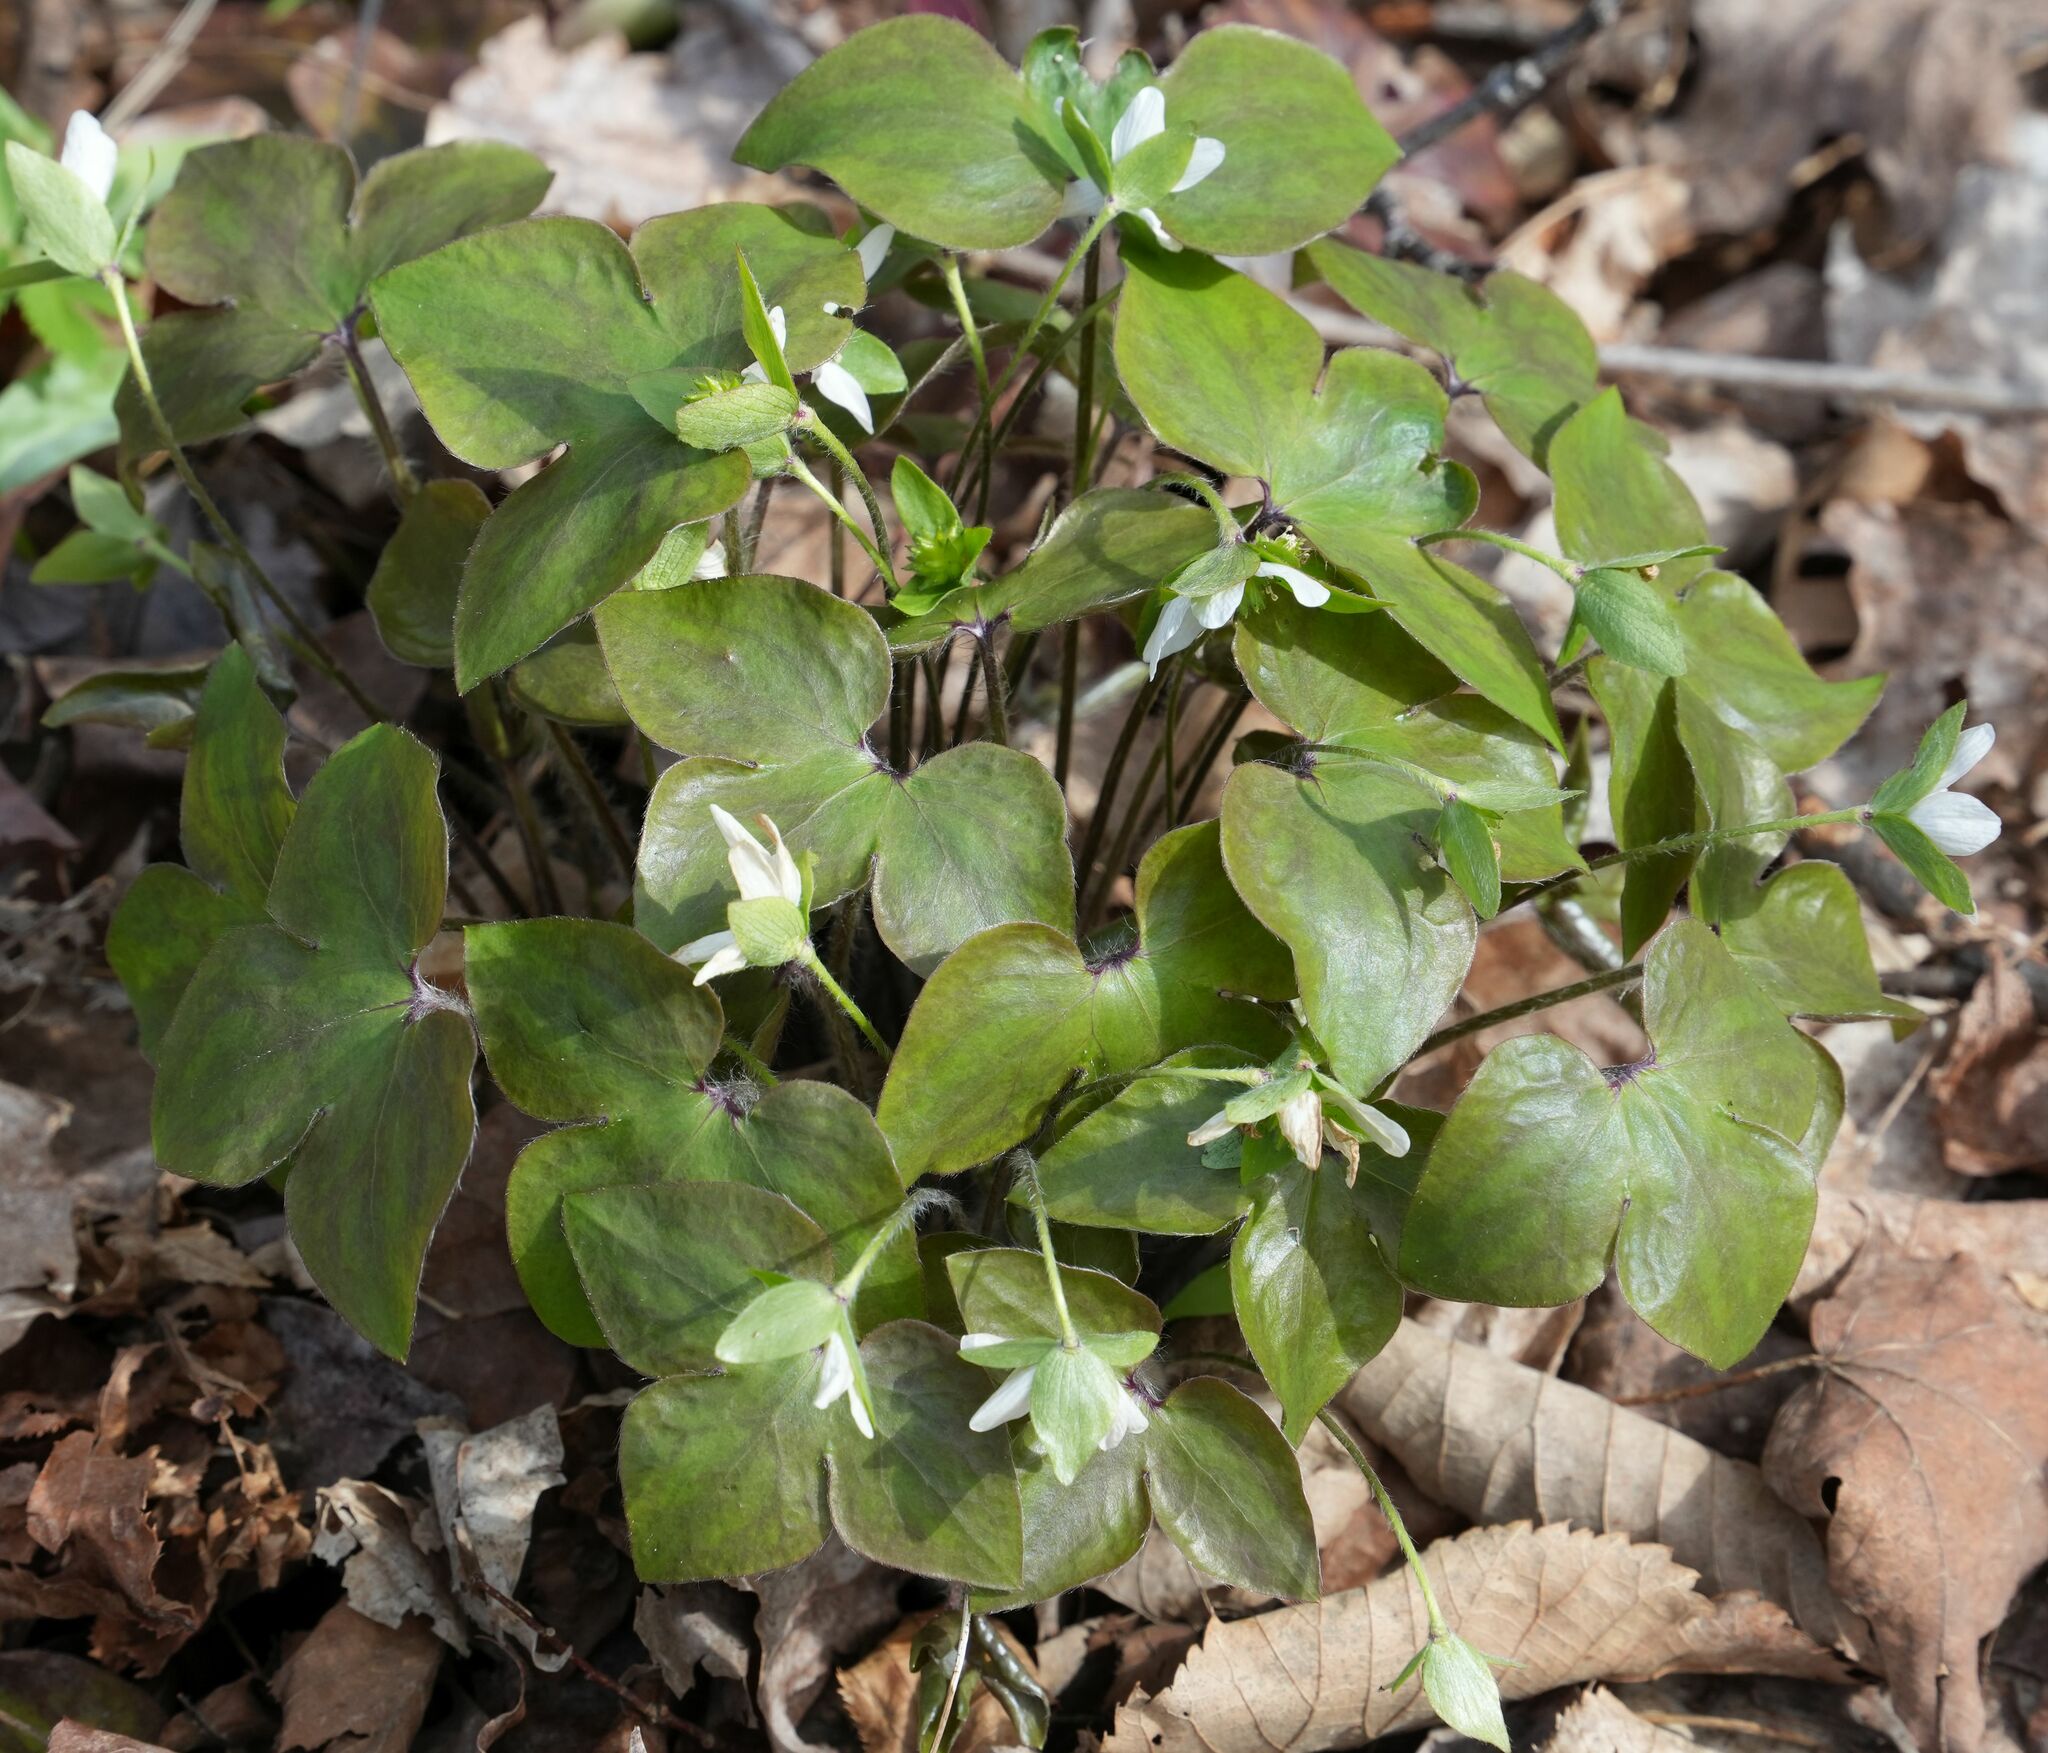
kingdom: Plantae
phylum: Tracheophyta
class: Magnoliopsida
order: Ranunculales
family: Ranunculaceae
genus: Hepatica
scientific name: Hepatica acutiloba
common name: Sharp-lobed hepatica
